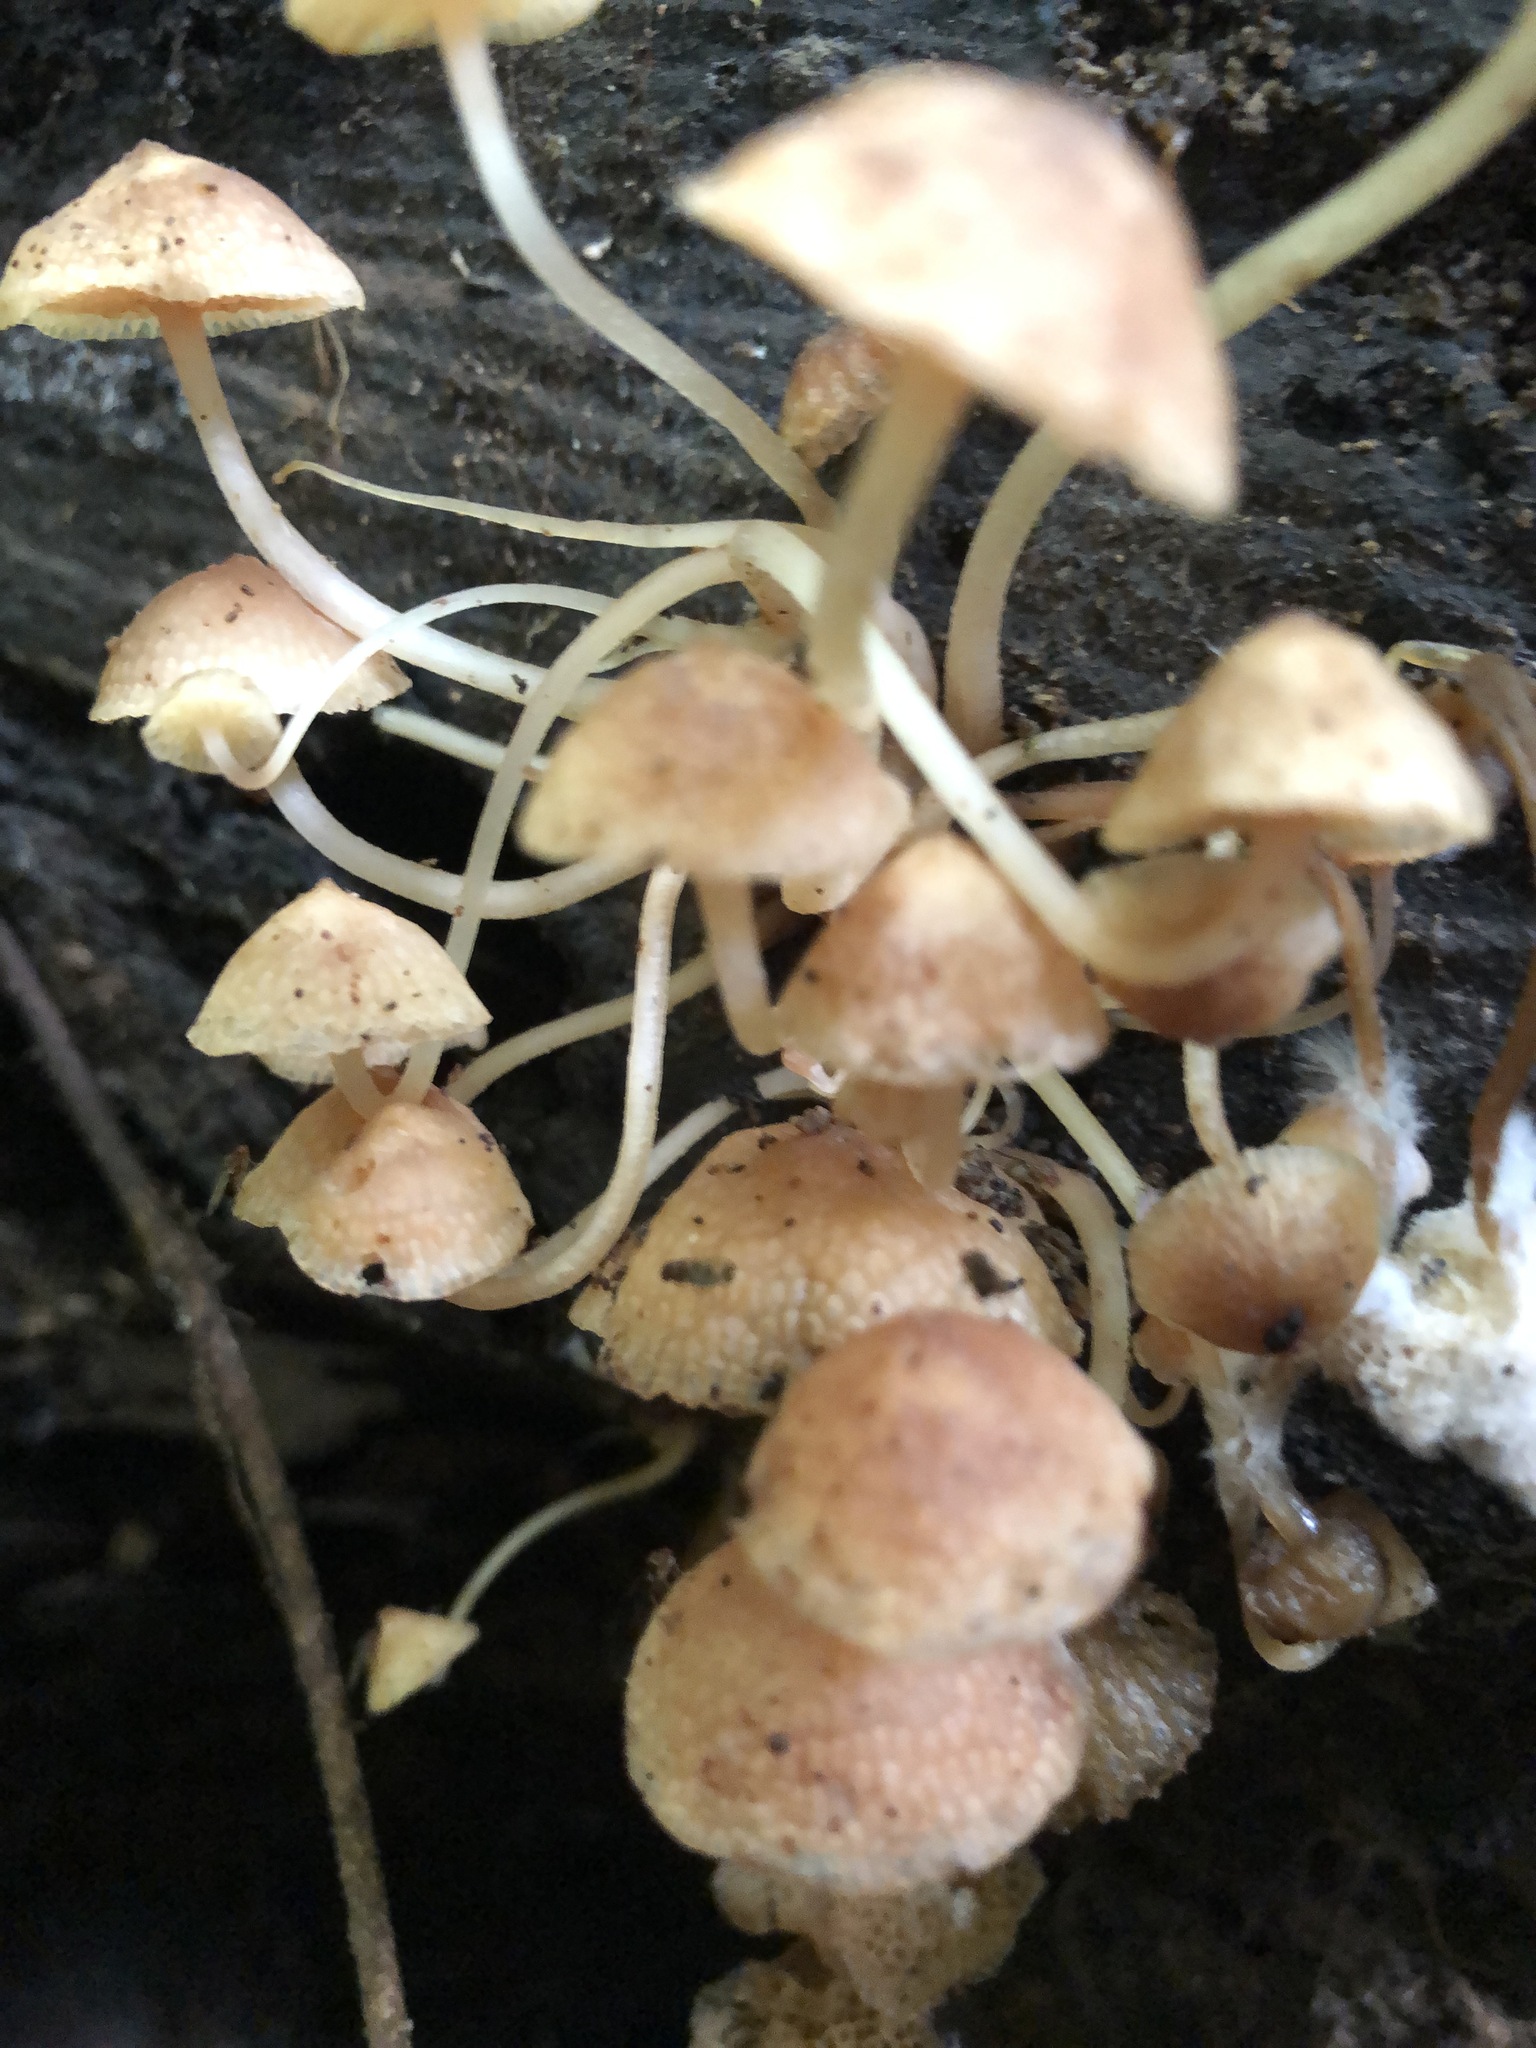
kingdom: Fungi
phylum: Basidiomycota
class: Agaricomycetes
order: Agaricales
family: Mycenaceae
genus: Filoboletus
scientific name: Filoboletus manipularis
